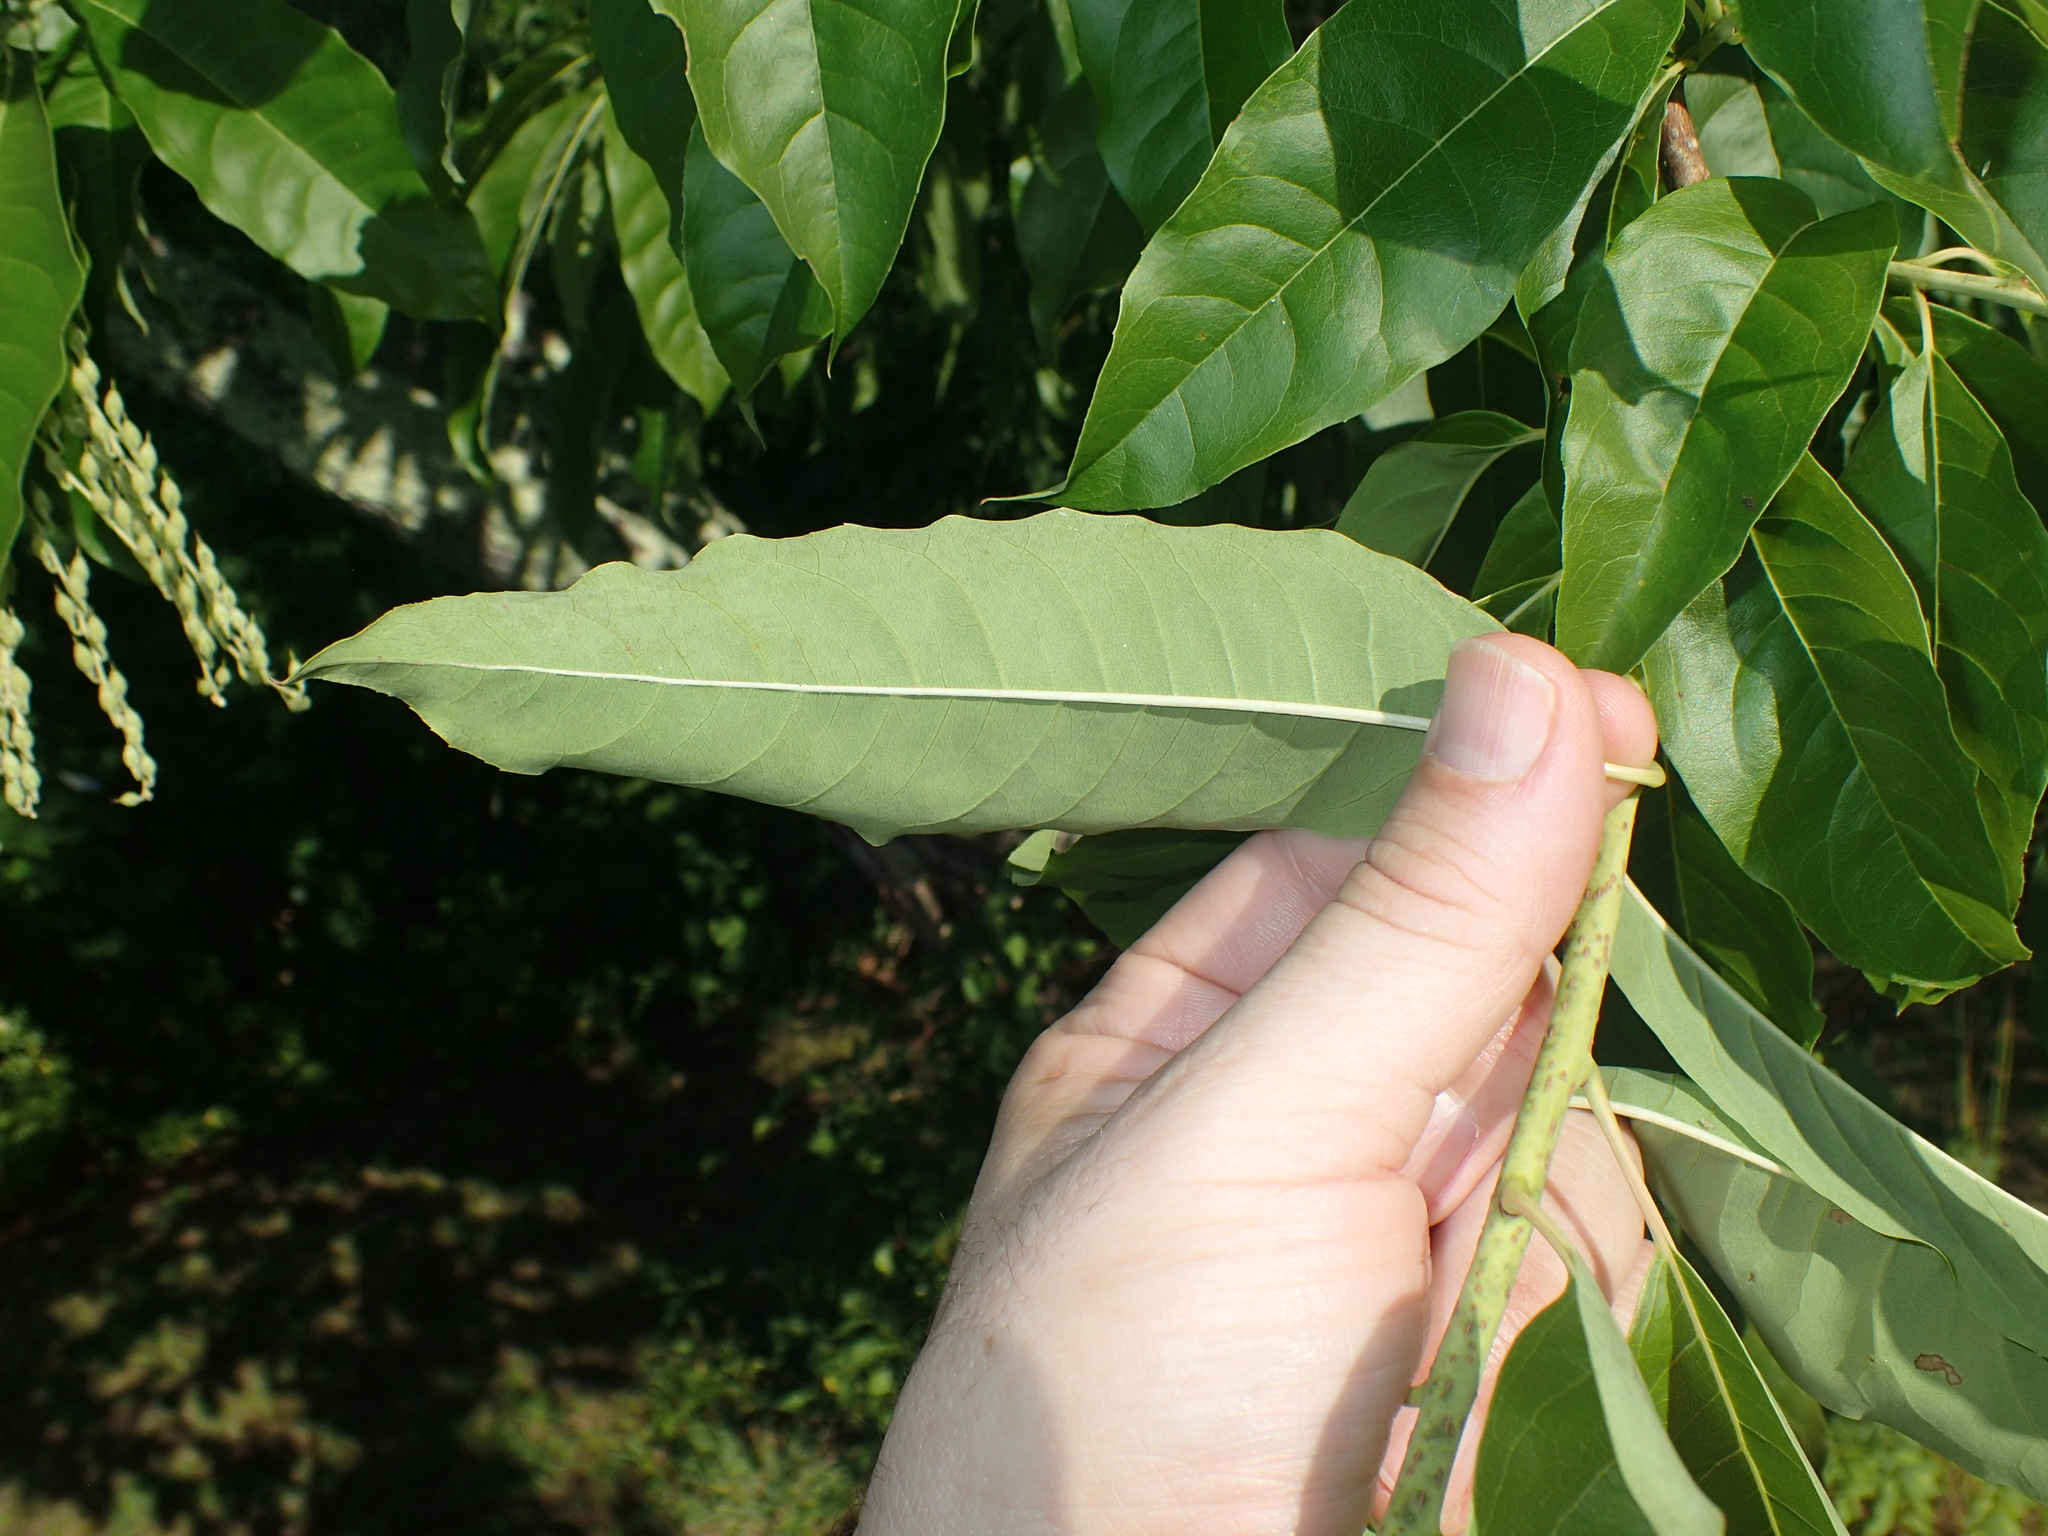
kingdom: Plantae
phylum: Tracheophyta
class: Magnoliopsida
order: Ericales
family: Ericaceae
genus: Oxydendrum
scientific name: Oxydendrum arboreum
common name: Sourwood
